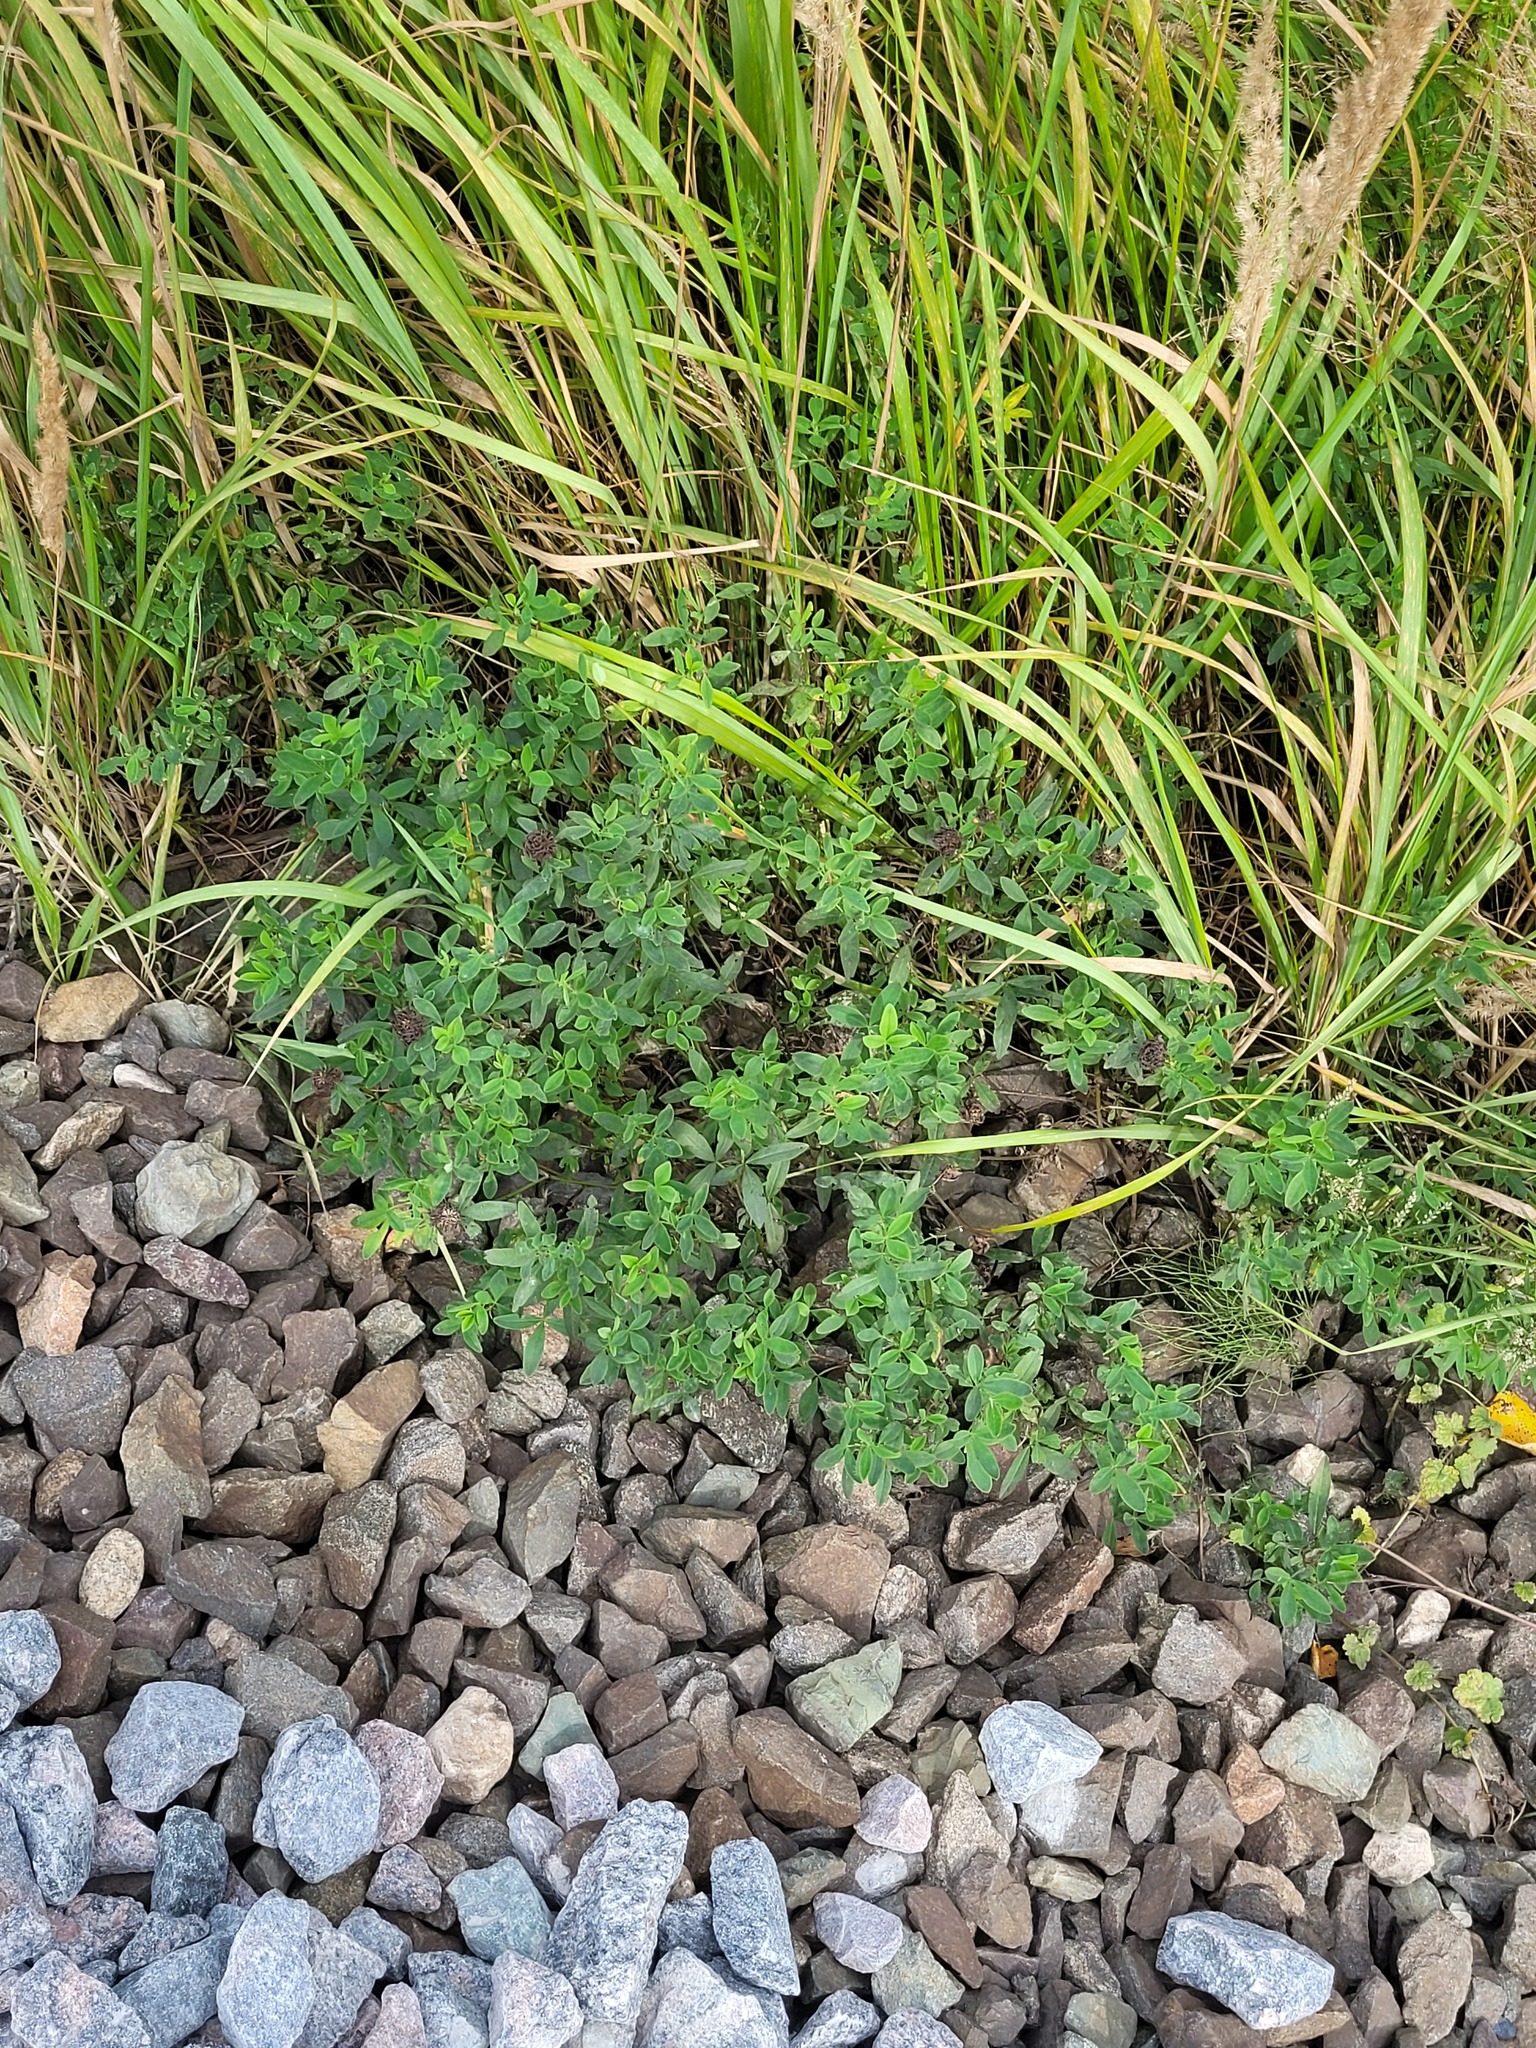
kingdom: Plantae
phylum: Tracheophyta
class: Magnoliopsida
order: Fabales
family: Fabaceae
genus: Trifolium
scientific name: Trifolium medium
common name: Zigzag clover
